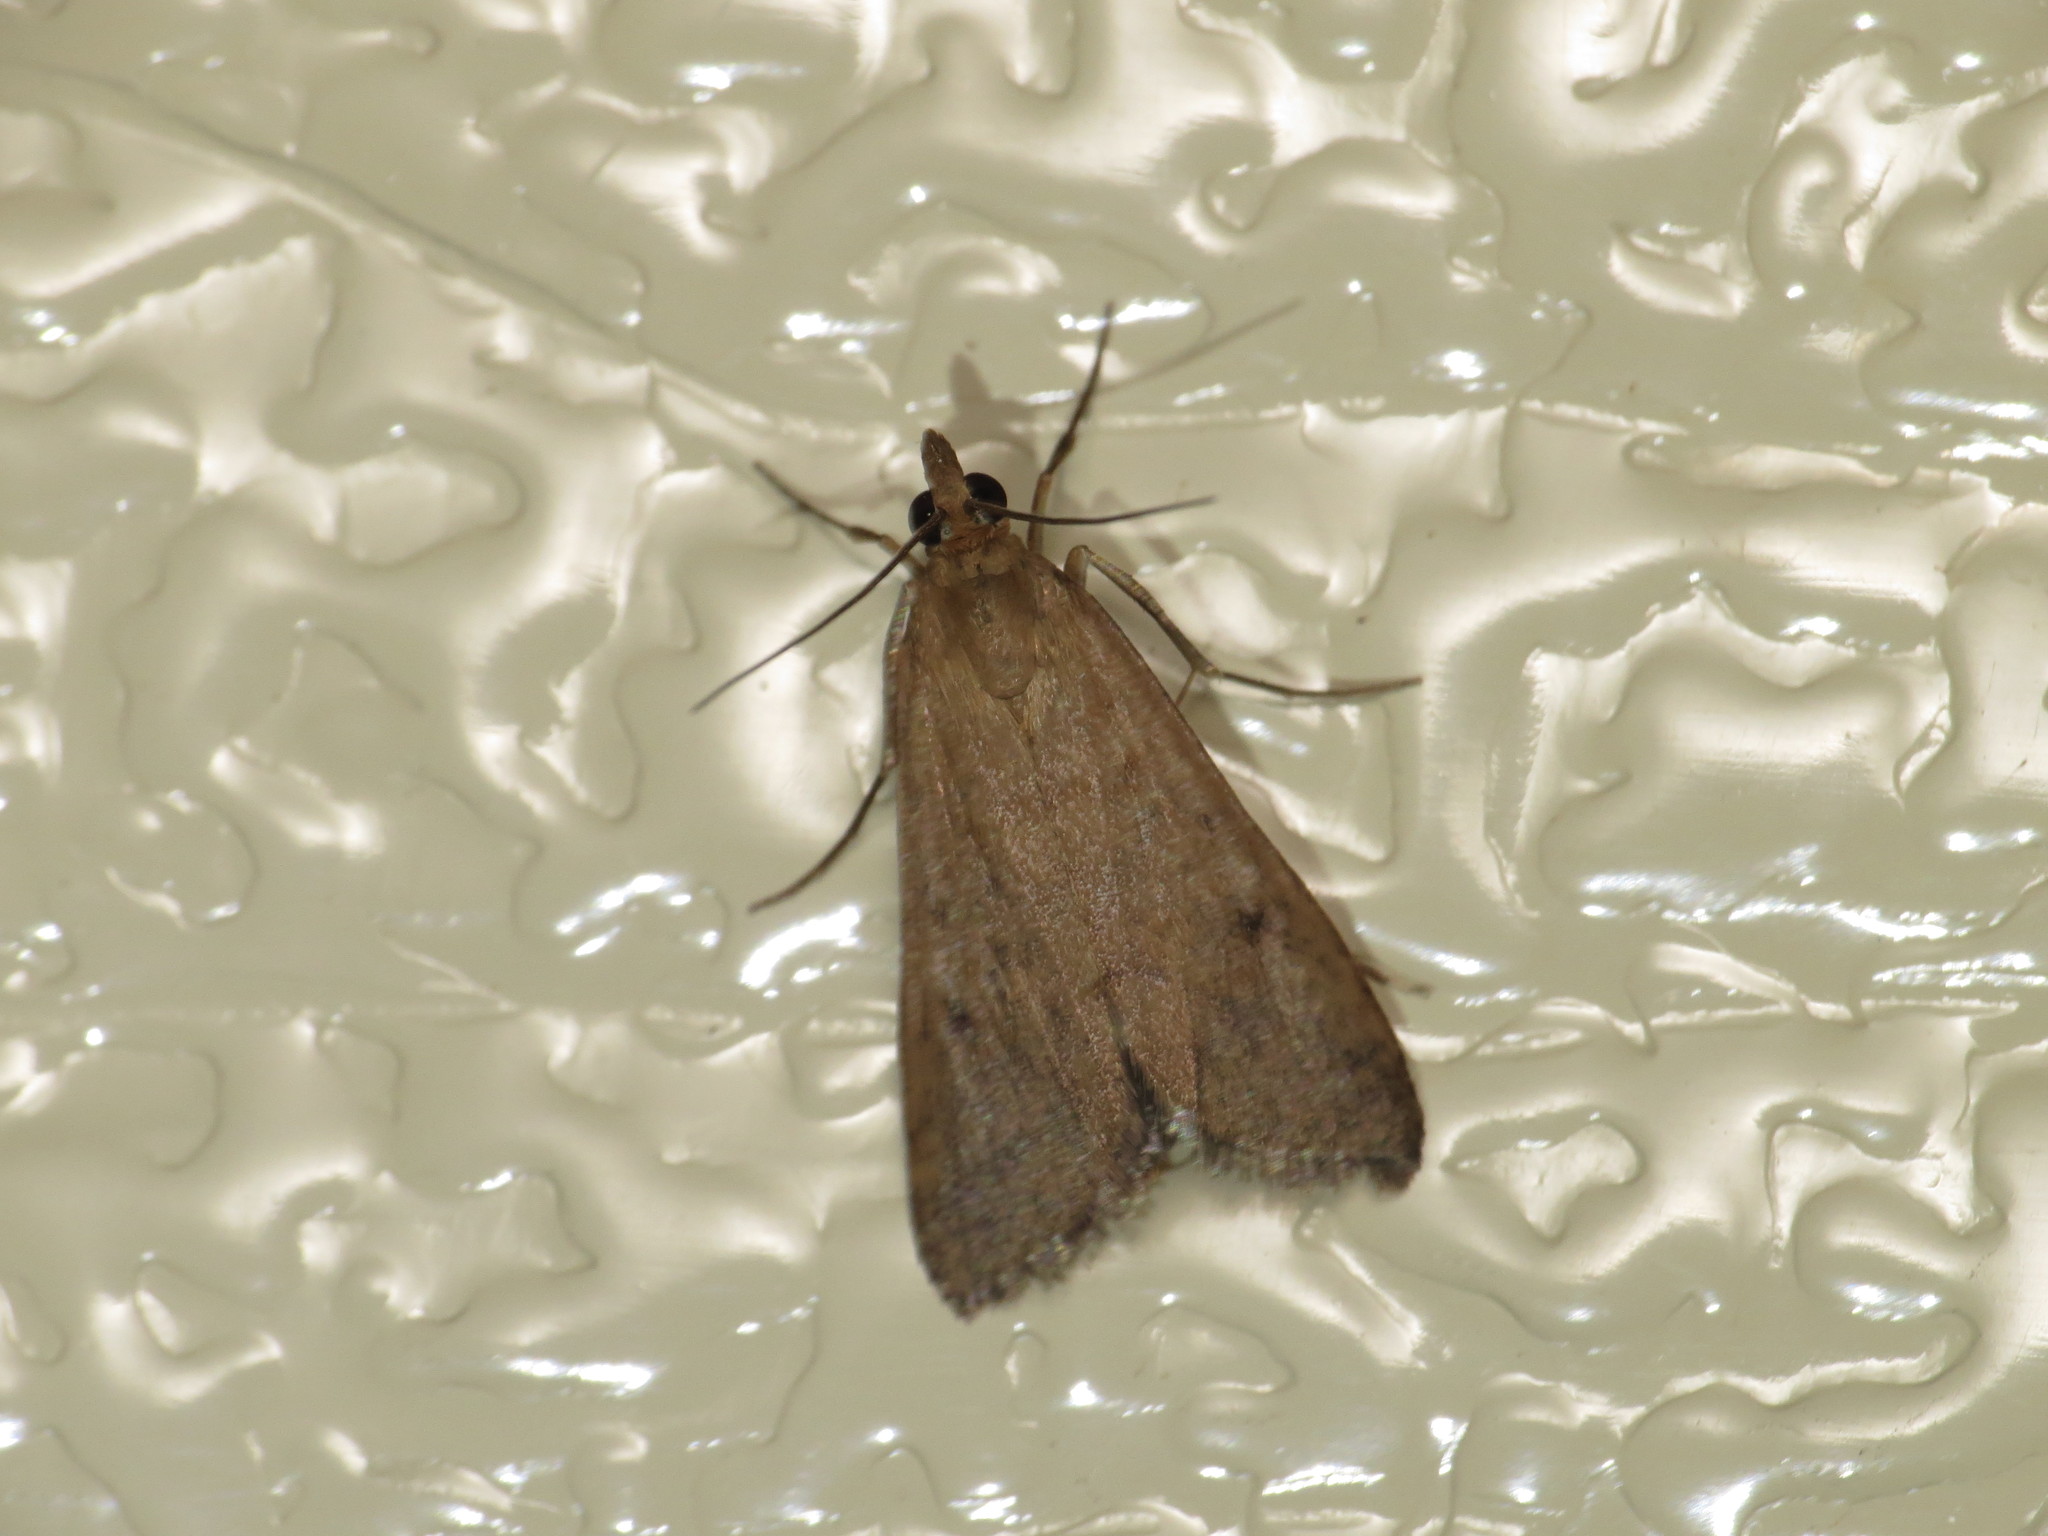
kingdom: Animalia
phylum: Arthropoda
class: Insecta
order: Lepidoptera
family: Crambidae
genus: Uresiphita
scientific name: Uresiphita ornithopteralis
